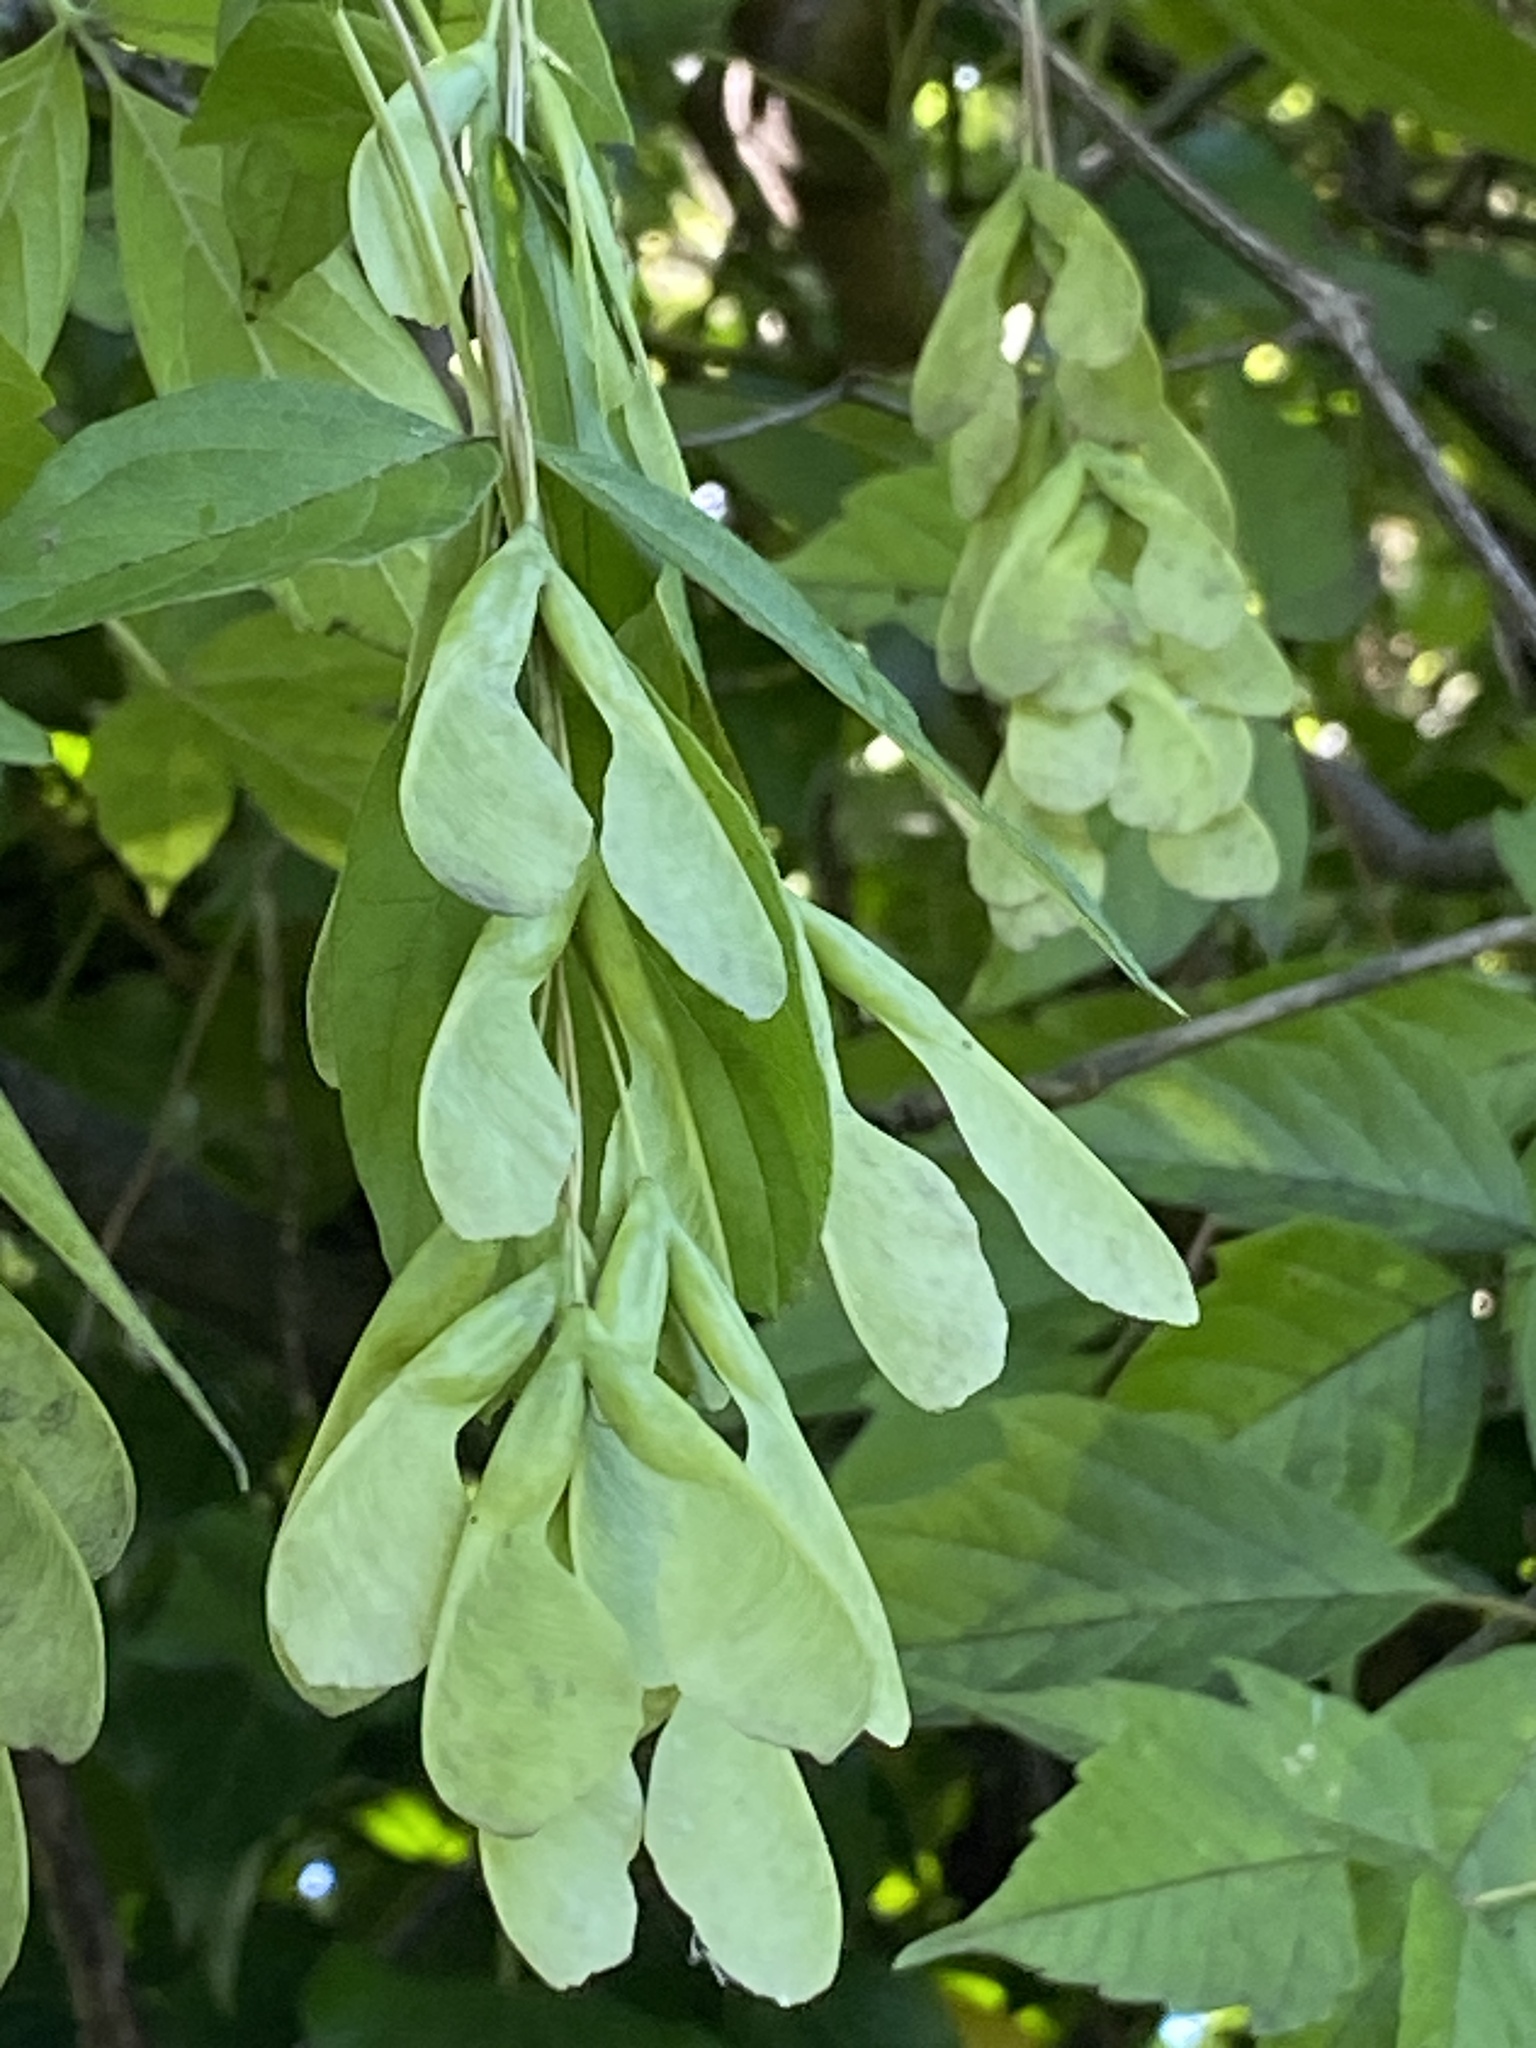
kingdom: Plantae
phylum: Tracheophyta
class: Magnoliopsida
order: Sapindales
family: Sapindaceae
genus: Acer
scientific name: Acer negundo
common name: Ashleaf maple
